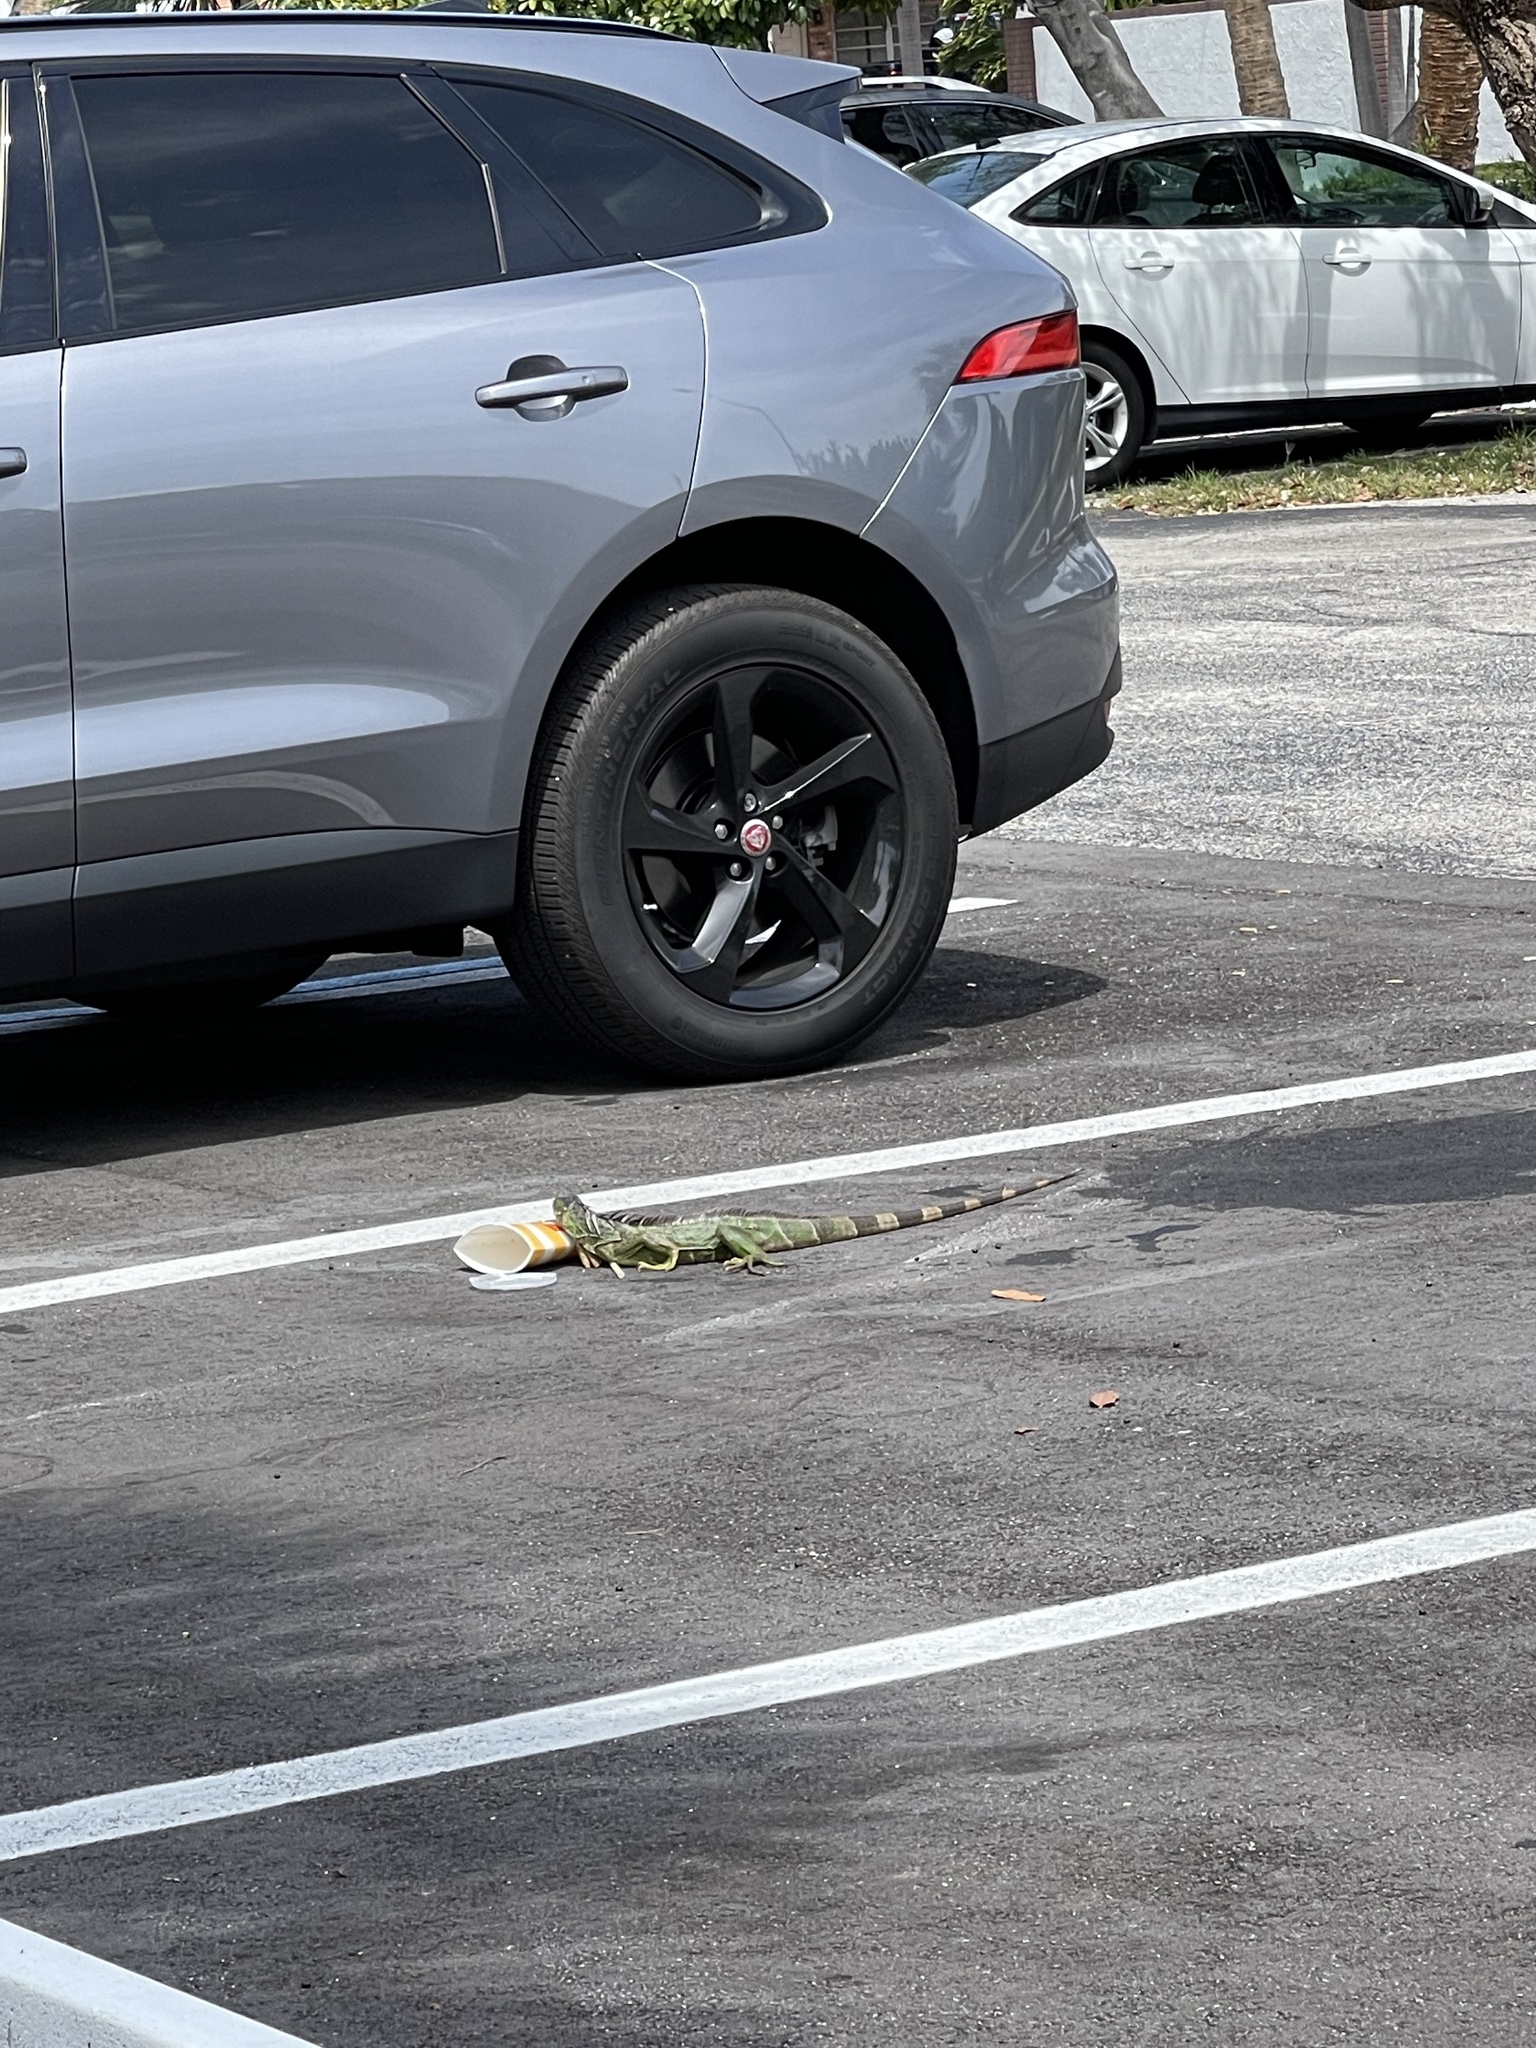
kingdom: Animalia
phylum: Chordata
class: Squamata
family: Iguanidae
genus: Iguana
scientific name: Iguana iguana
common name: Green iguana
